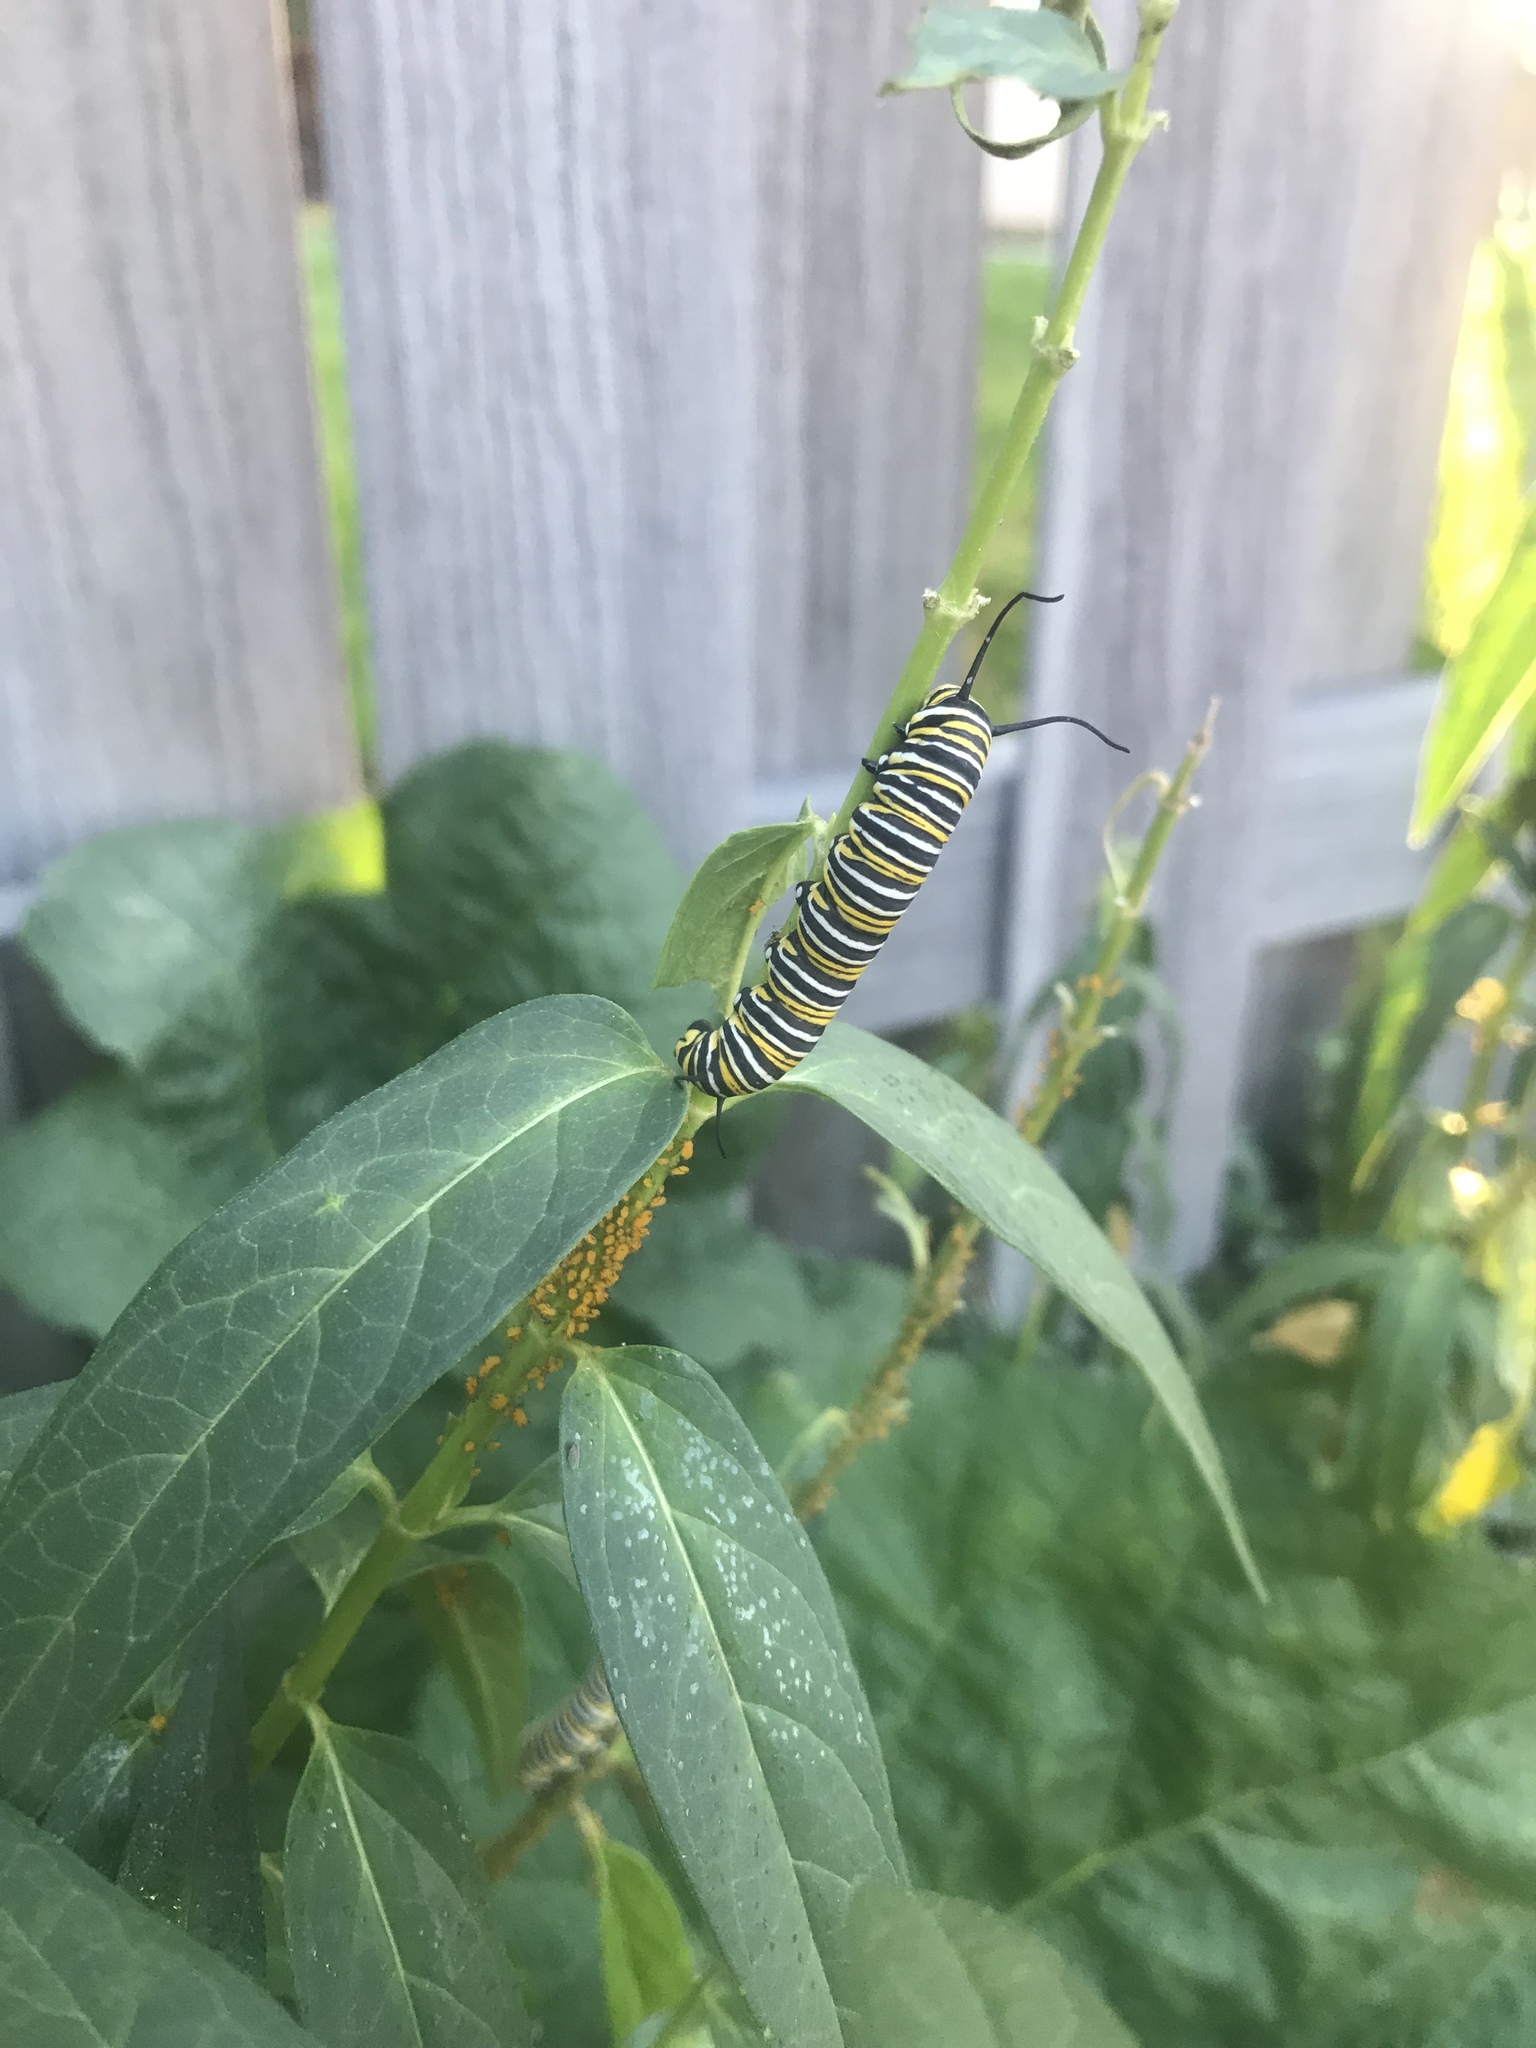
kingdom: Animalia
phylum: Arthropoda
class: Insecta
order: Lepidoptera
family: Nymphalidae
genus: Danaus
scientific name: Danaus plexippus
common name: Monarch
